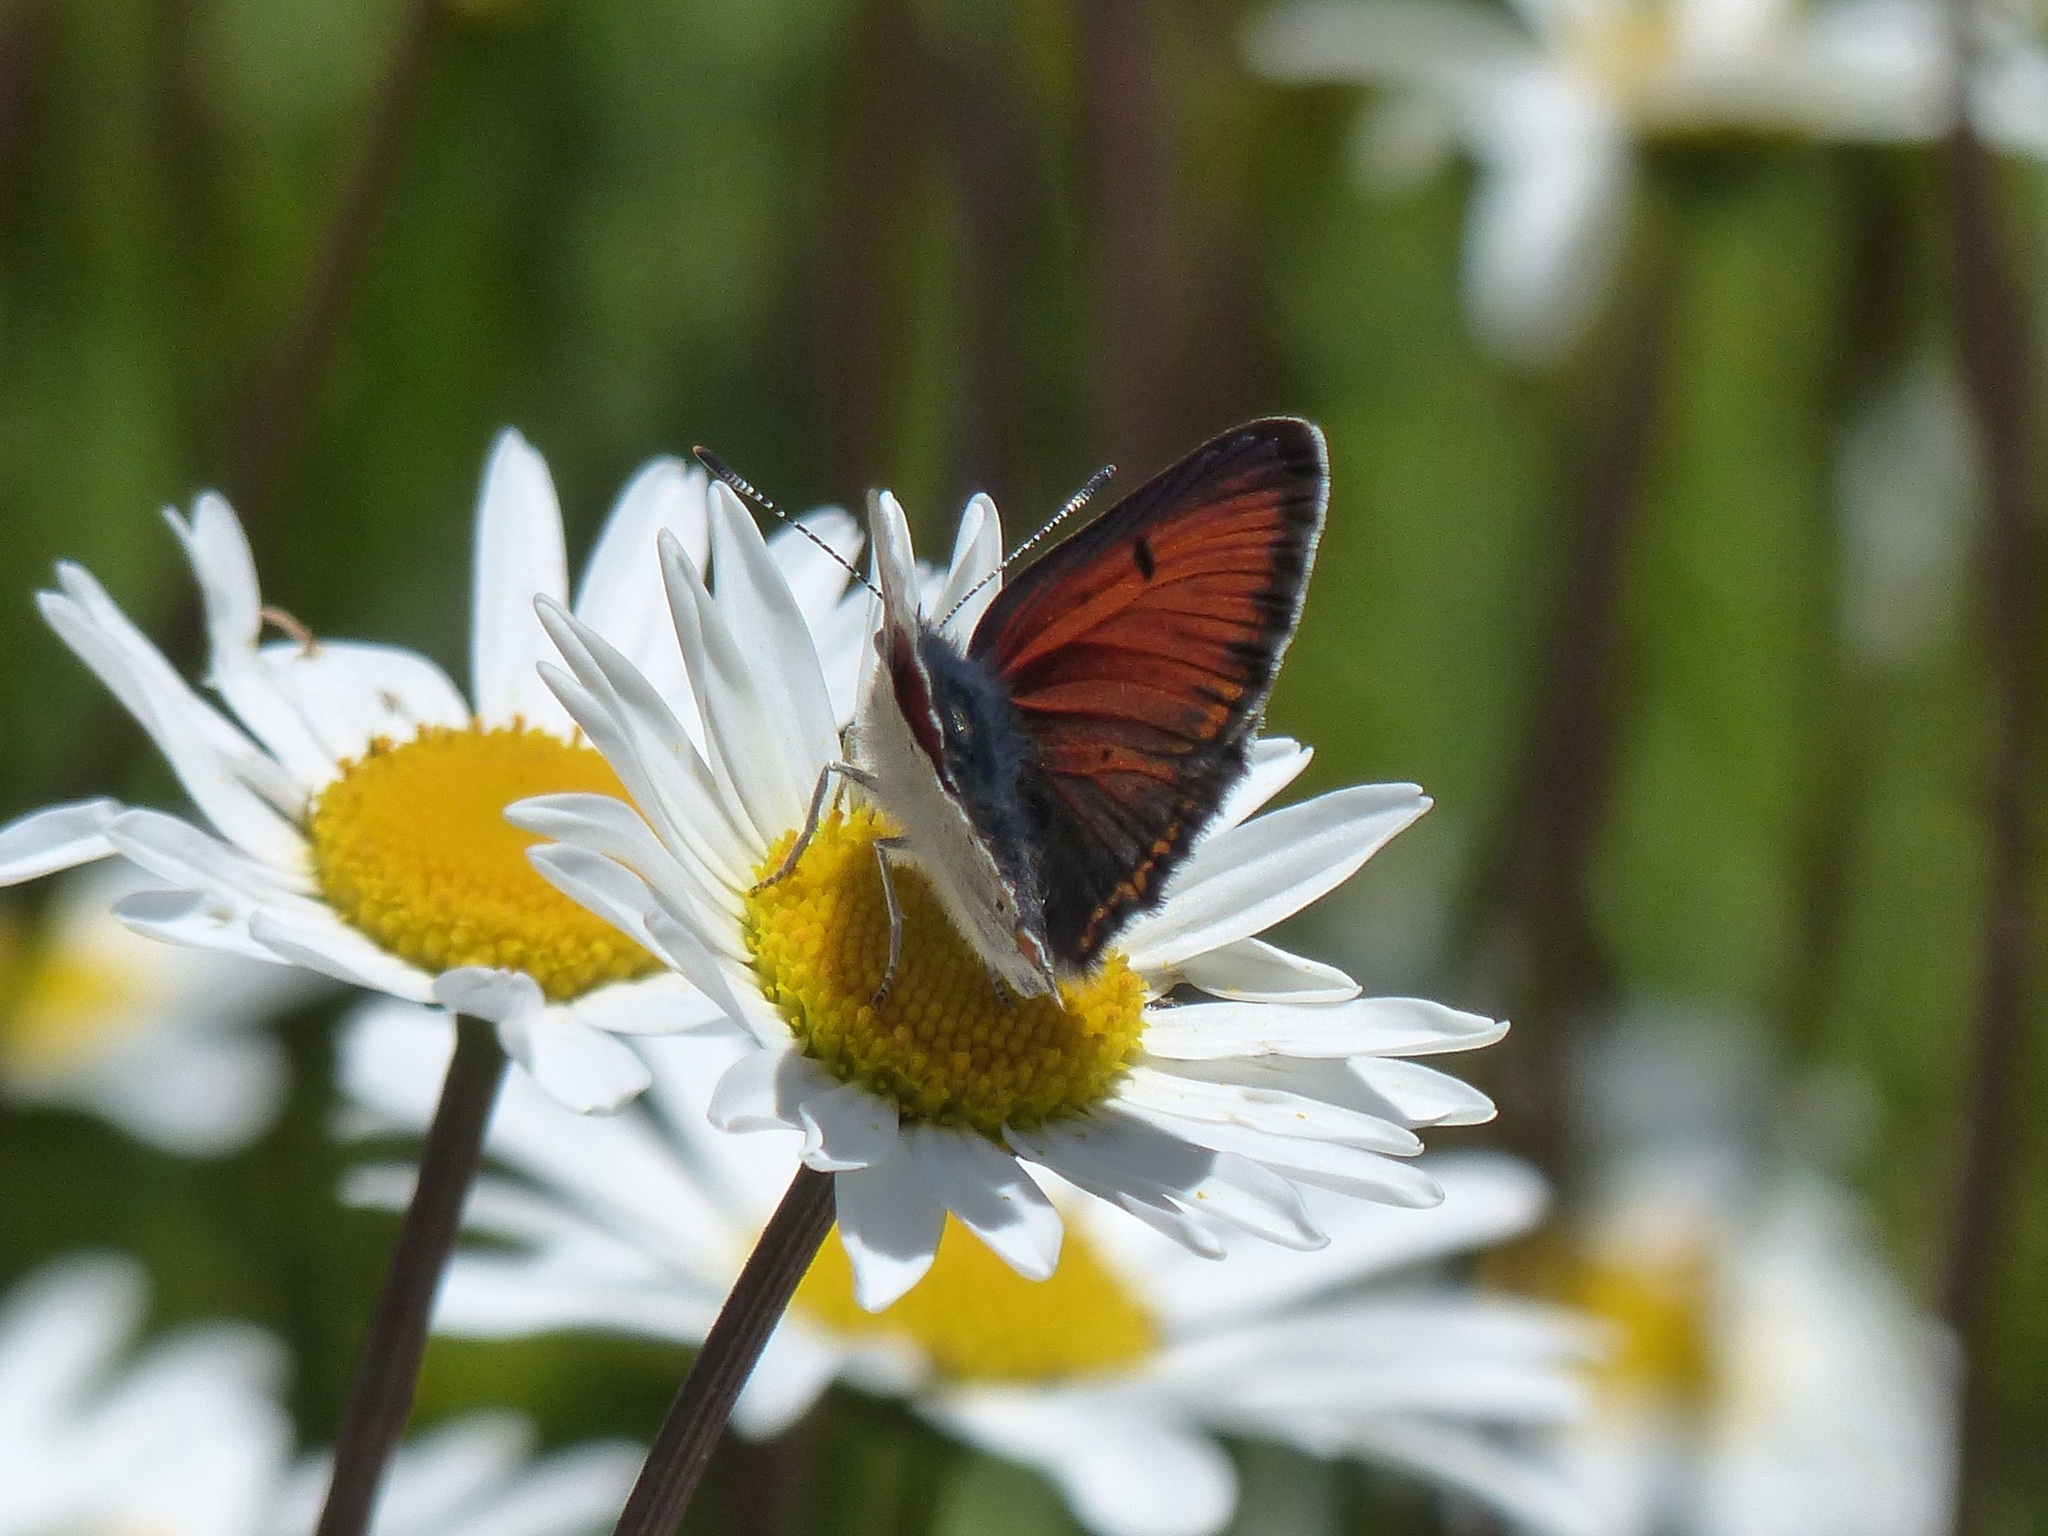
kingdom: Animalia
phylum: Arthropoda
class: Insecta
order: Lepidoptera
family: Lycaenidae
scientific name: Lycaenidae
